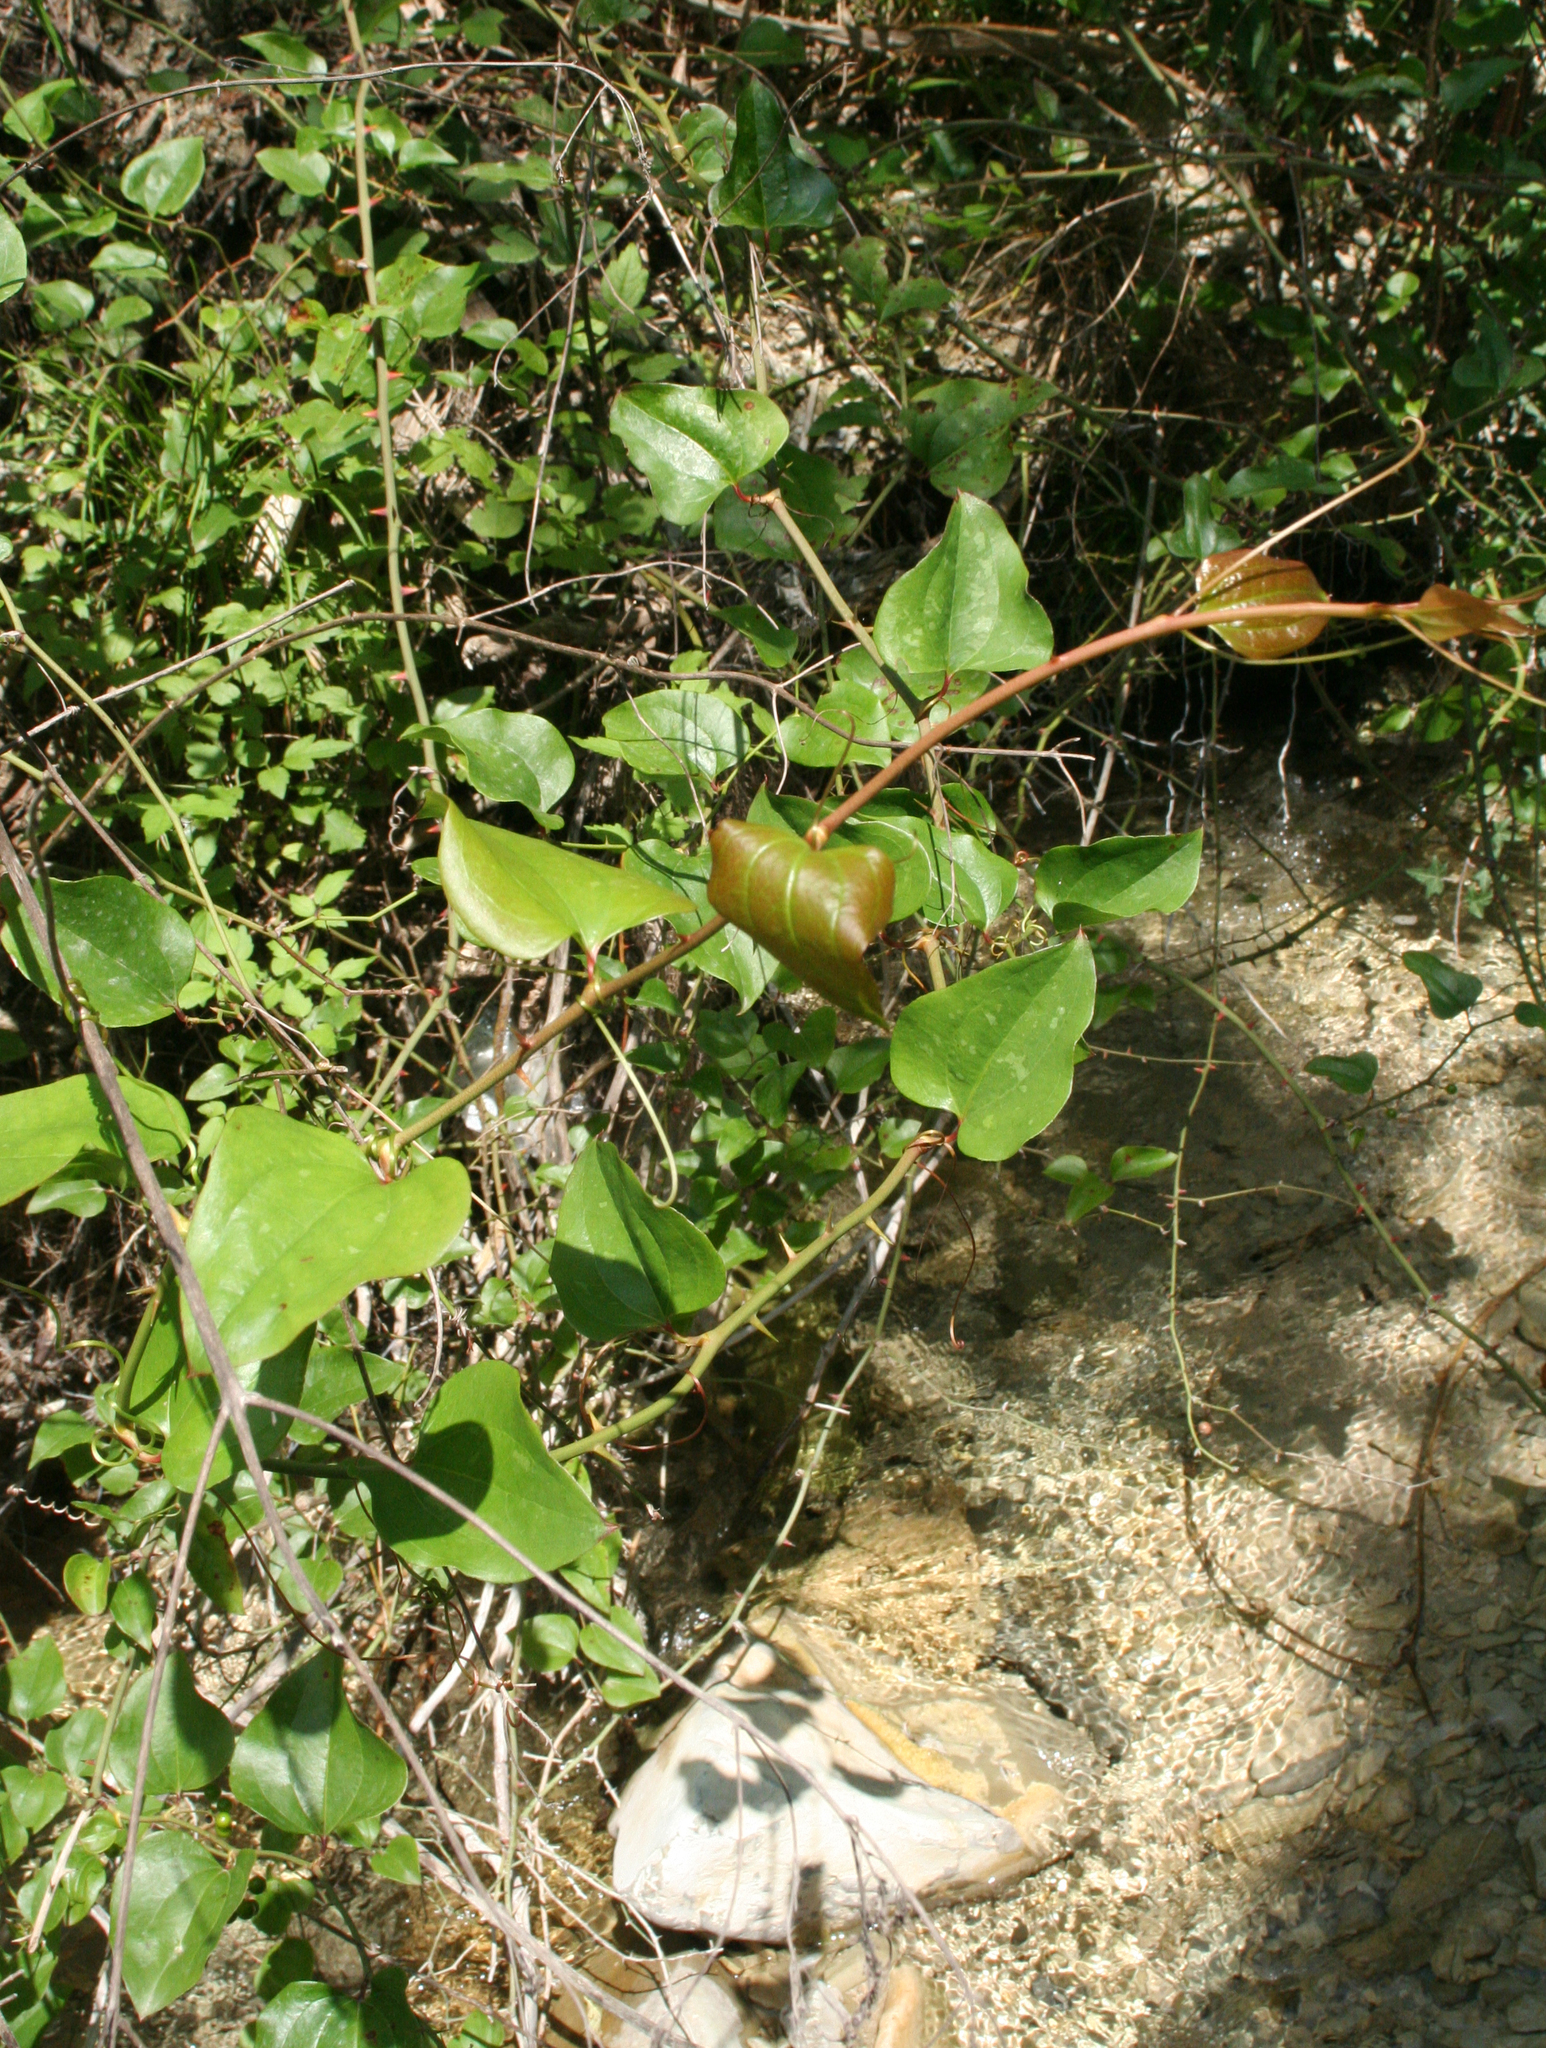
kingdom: Plantae
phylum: Tracheophyta
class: Liliopsida
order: Liliales
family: Smilacaceae
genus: Smilax
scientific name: Smilax excelsa
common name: Larger smilax
